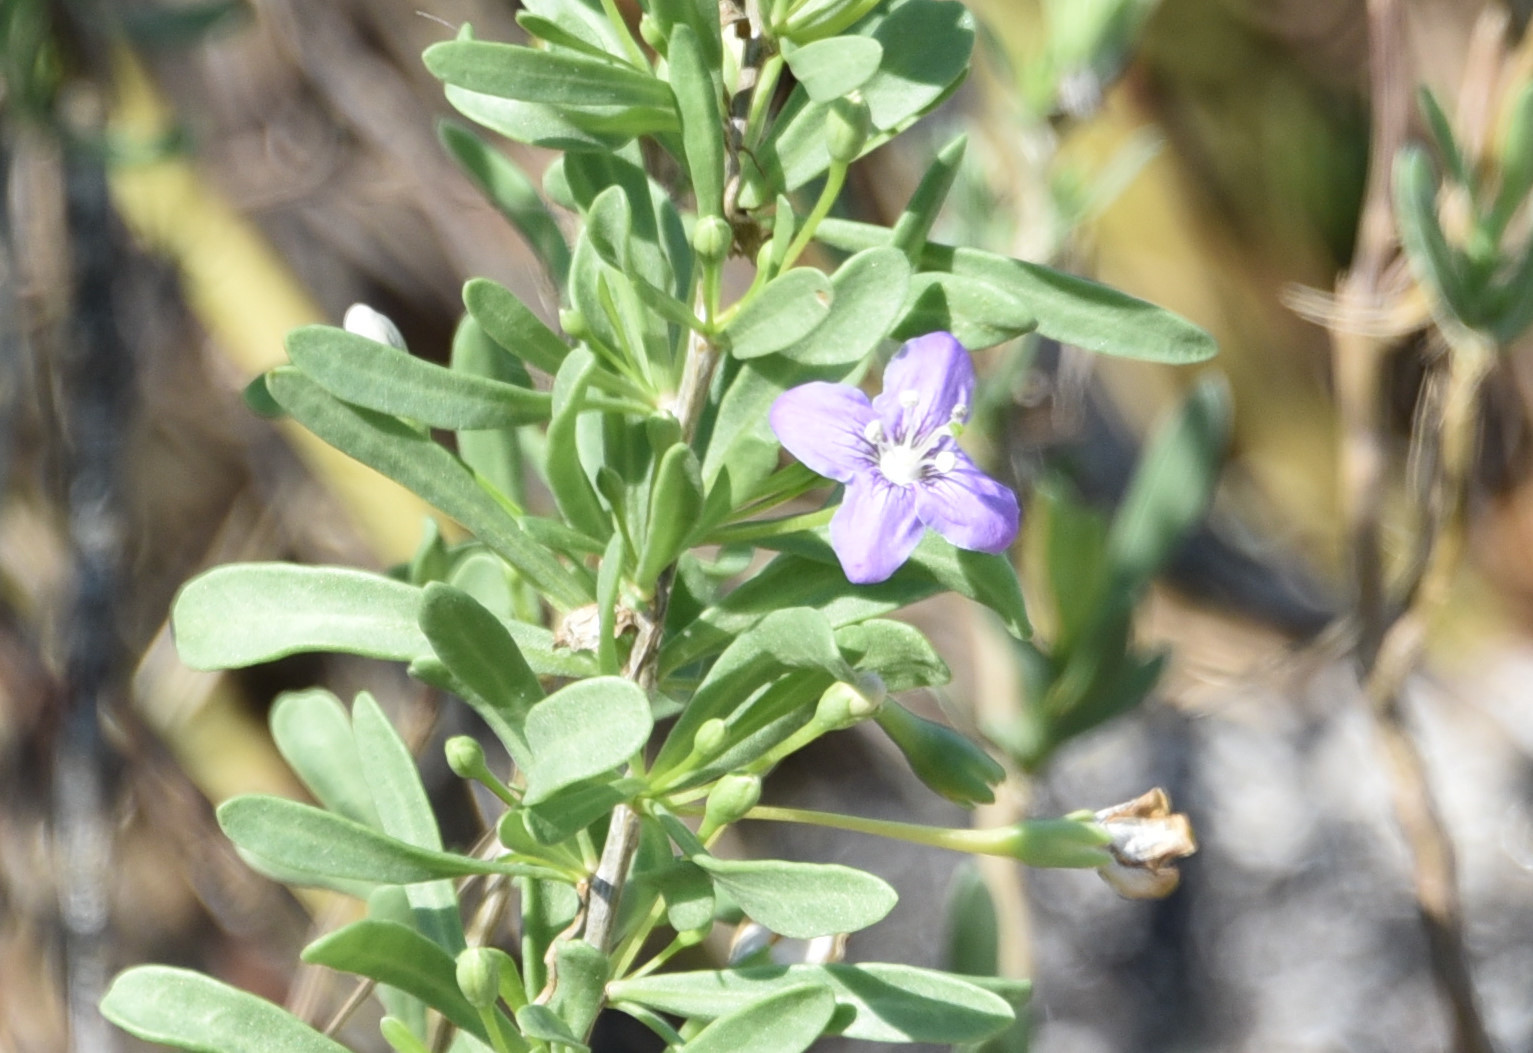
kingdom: Plantae
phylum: Tracheophyta
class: Magnoliopsida
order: Solanales
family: Solanaceae
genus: Lycium
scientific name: Lycium carolinianum
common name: Christmasberry
